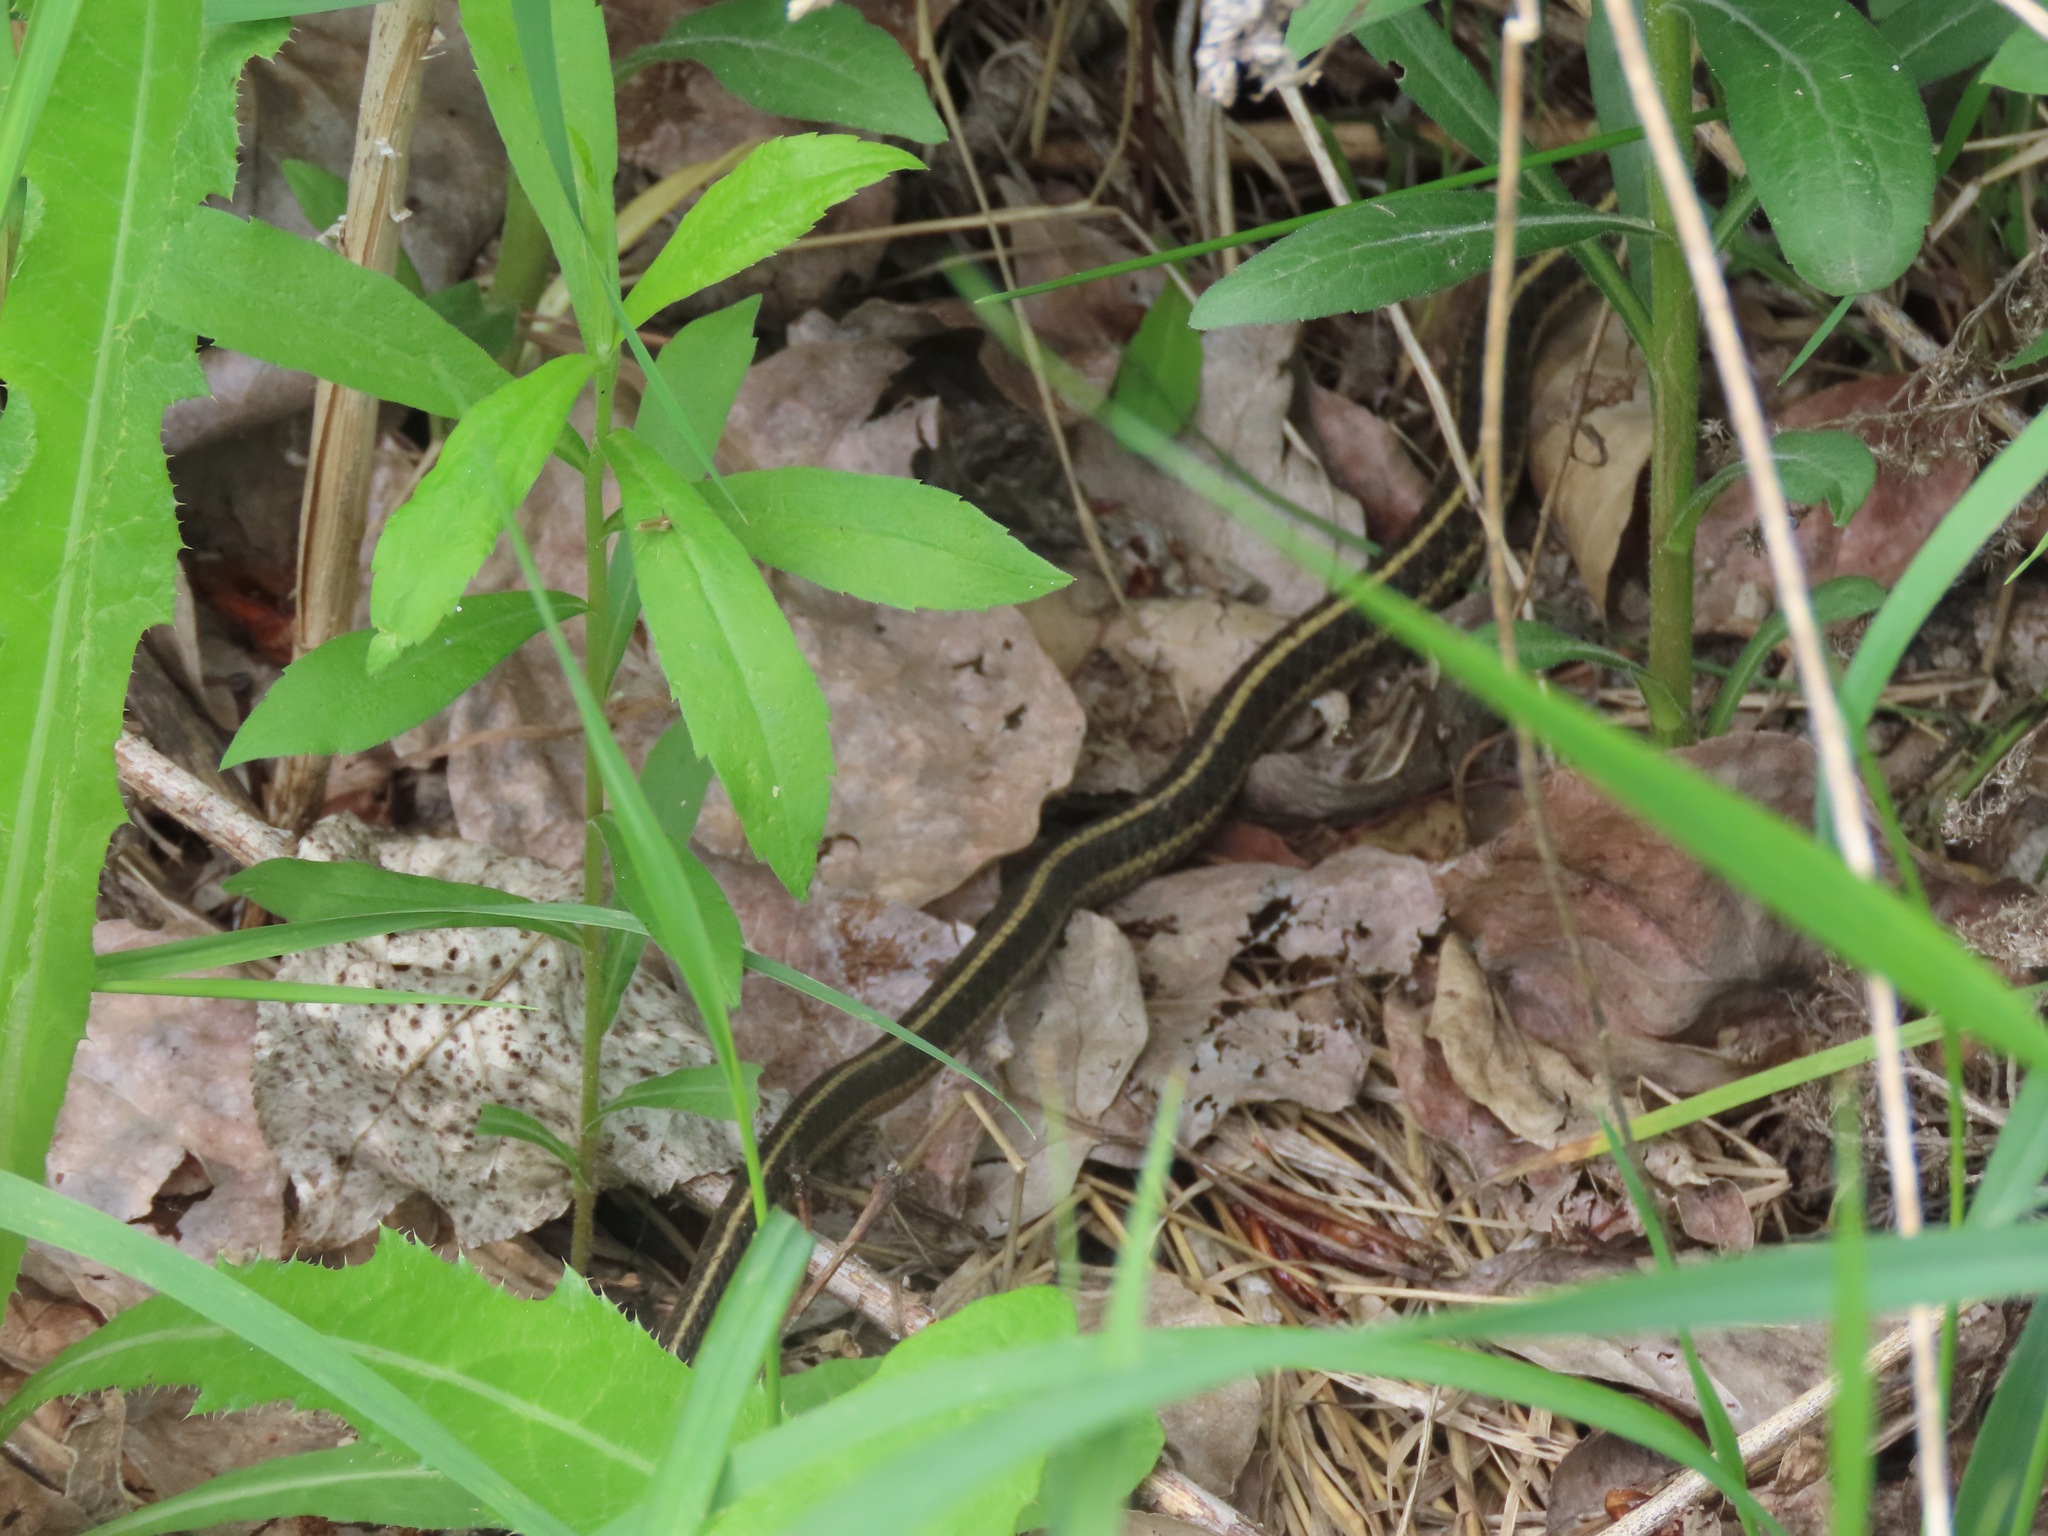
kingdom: Animalia
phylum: Chordata
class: Squamata
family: Colubridae
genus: Thamnophis
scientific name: Thamnophis elegans
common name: Western terrestrial garter snake
